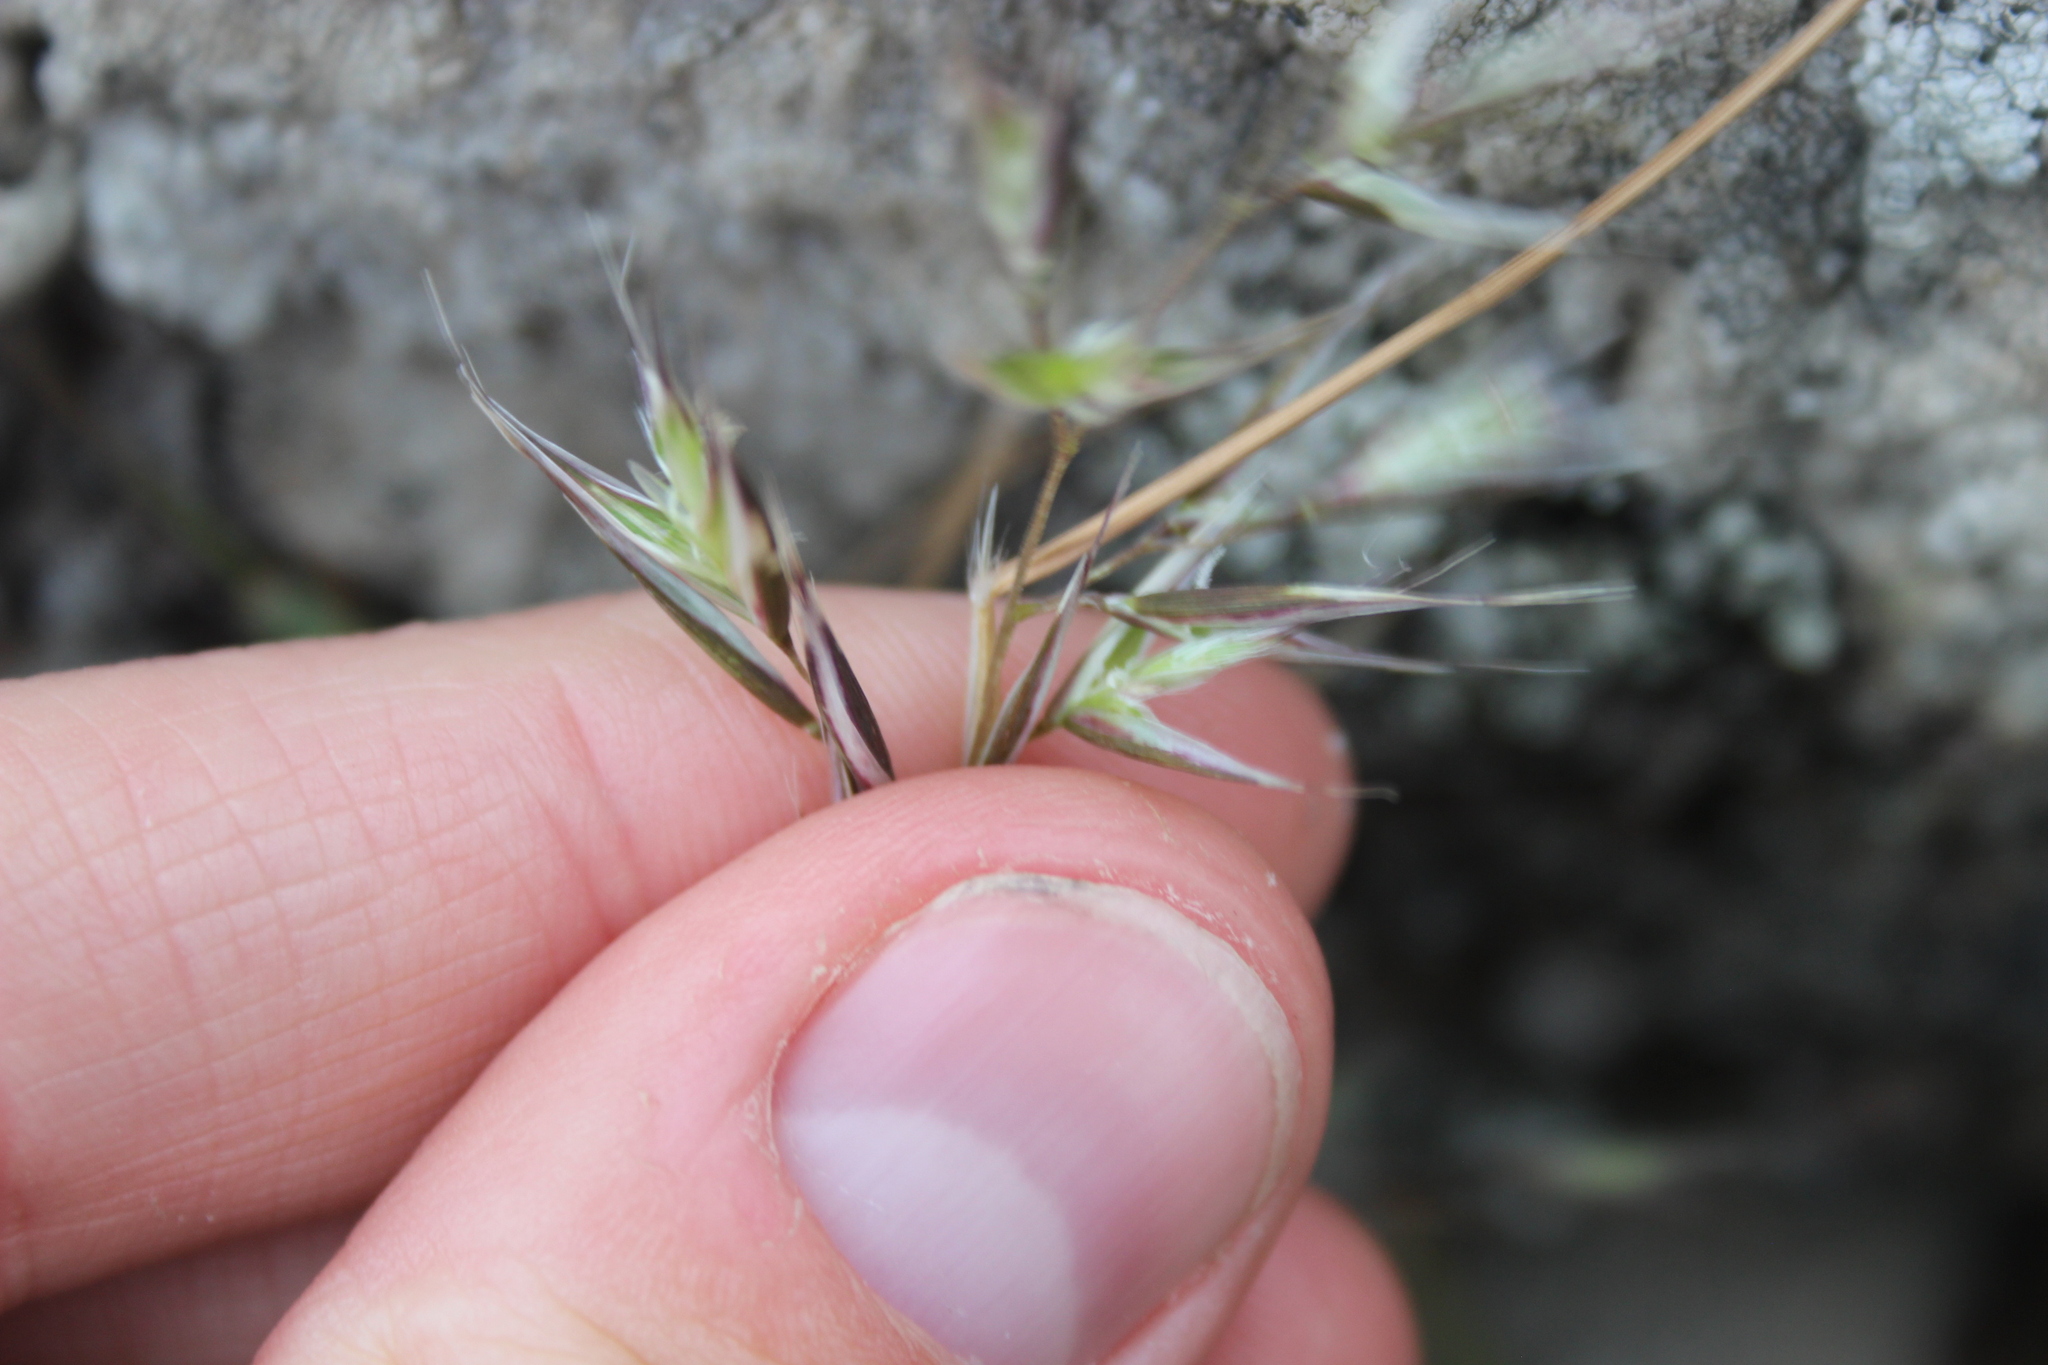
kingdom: Plantae
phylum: Tracheophyta
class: Liliopsida
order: Poales
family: Poaceae
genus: Rytidosperma
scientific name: Rytidosperma racemosum
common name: Wallaby-grass
